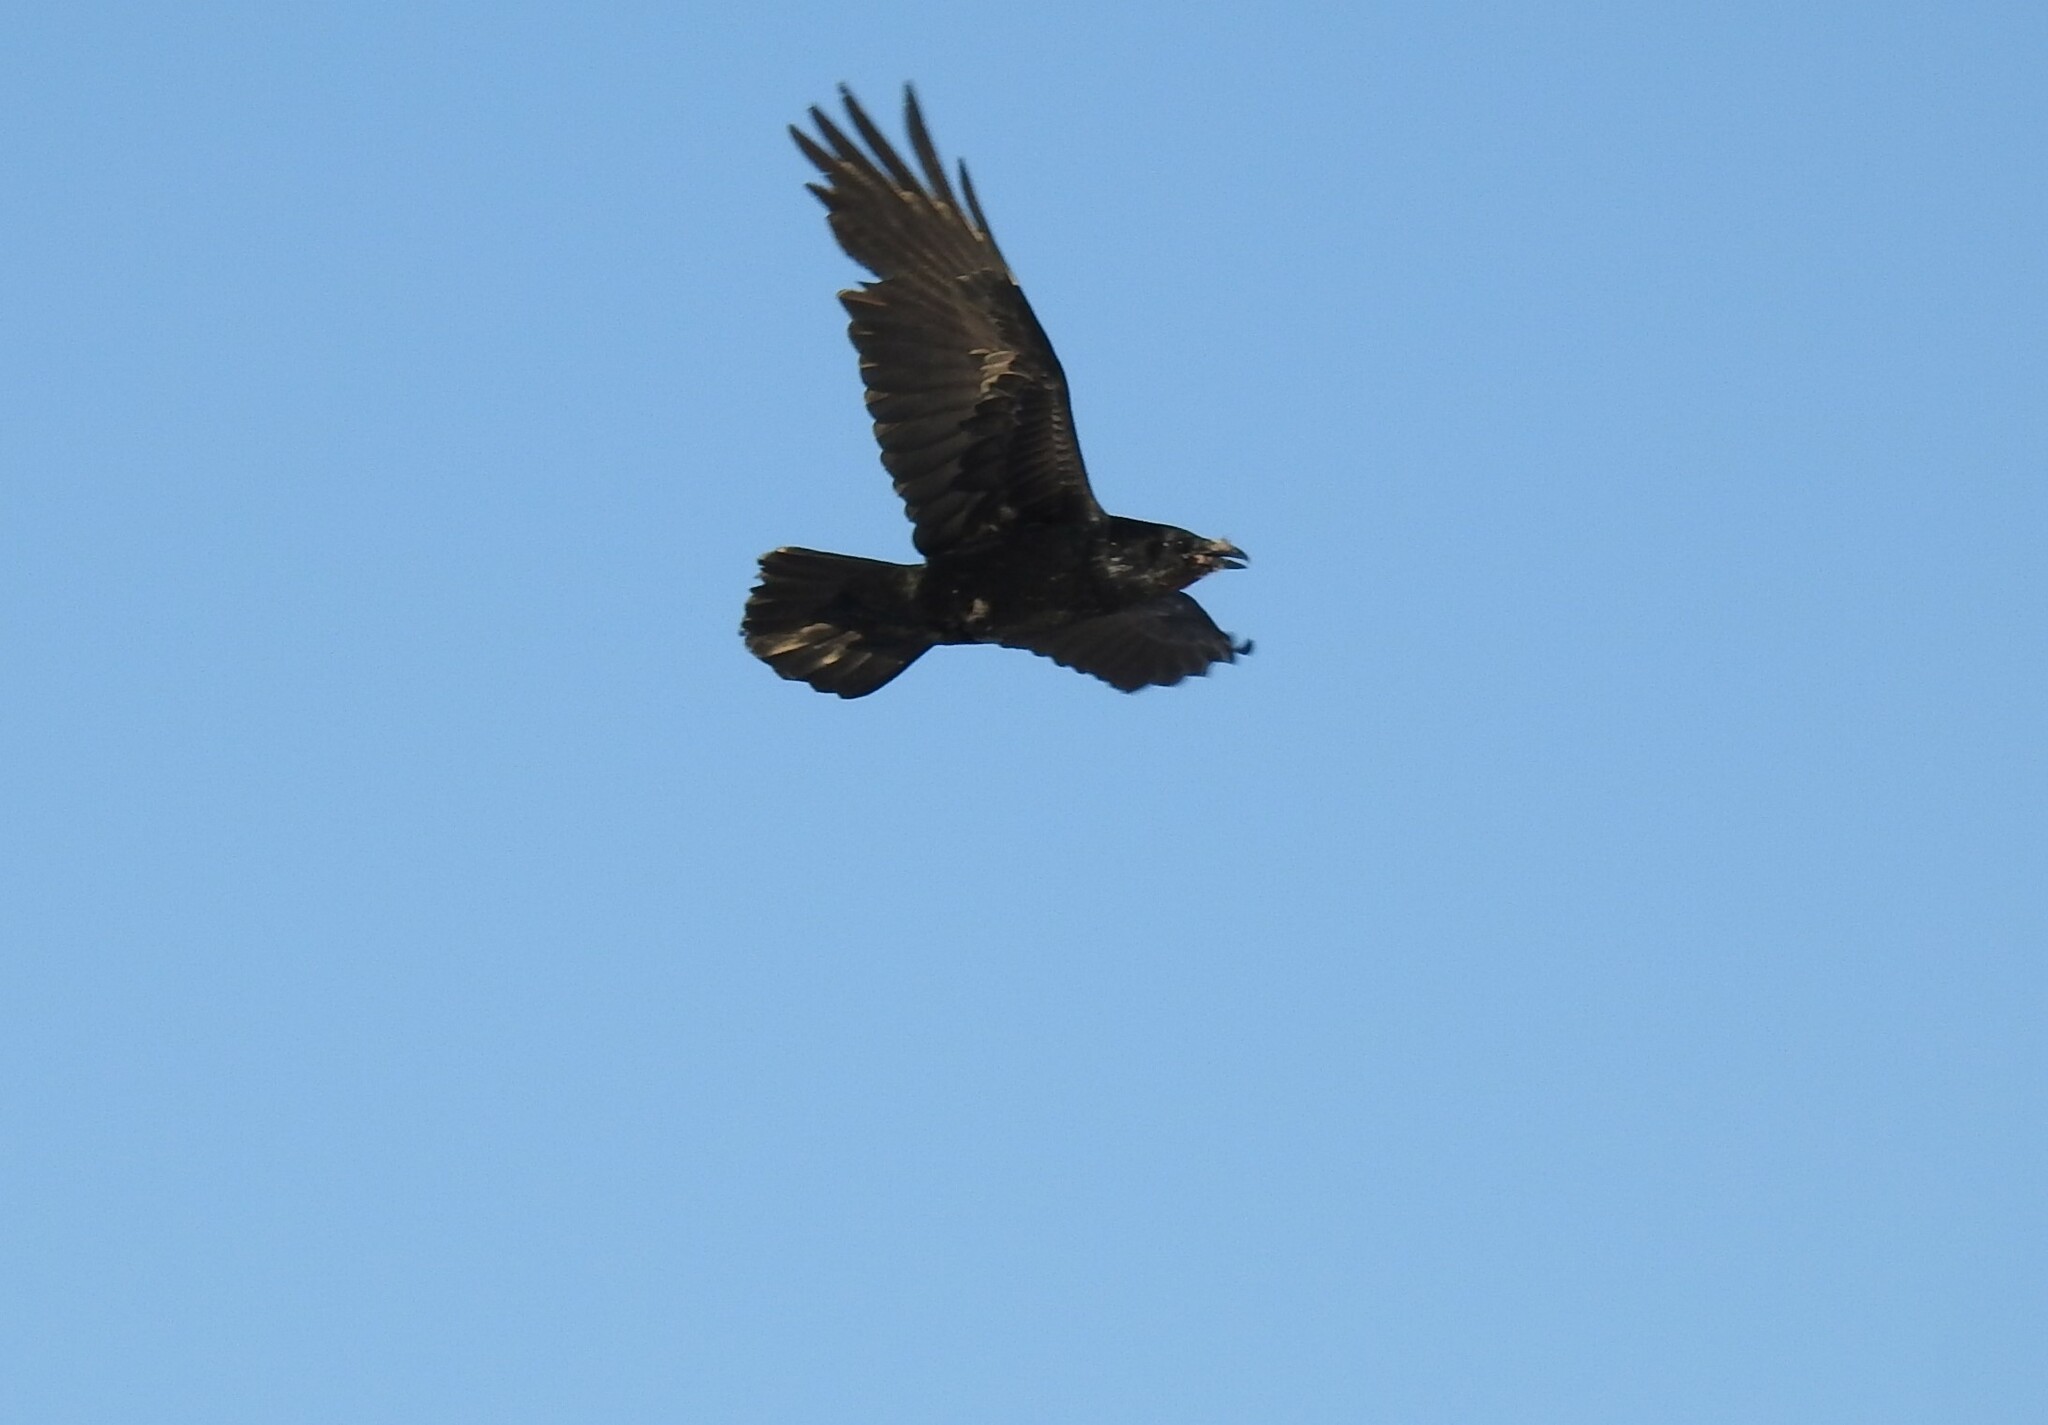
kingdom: Animalia
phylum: Chordata
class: Aves
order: Passeriformes
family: Corvidae
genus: Corvus
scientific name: Corvus corax
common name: Common raven
